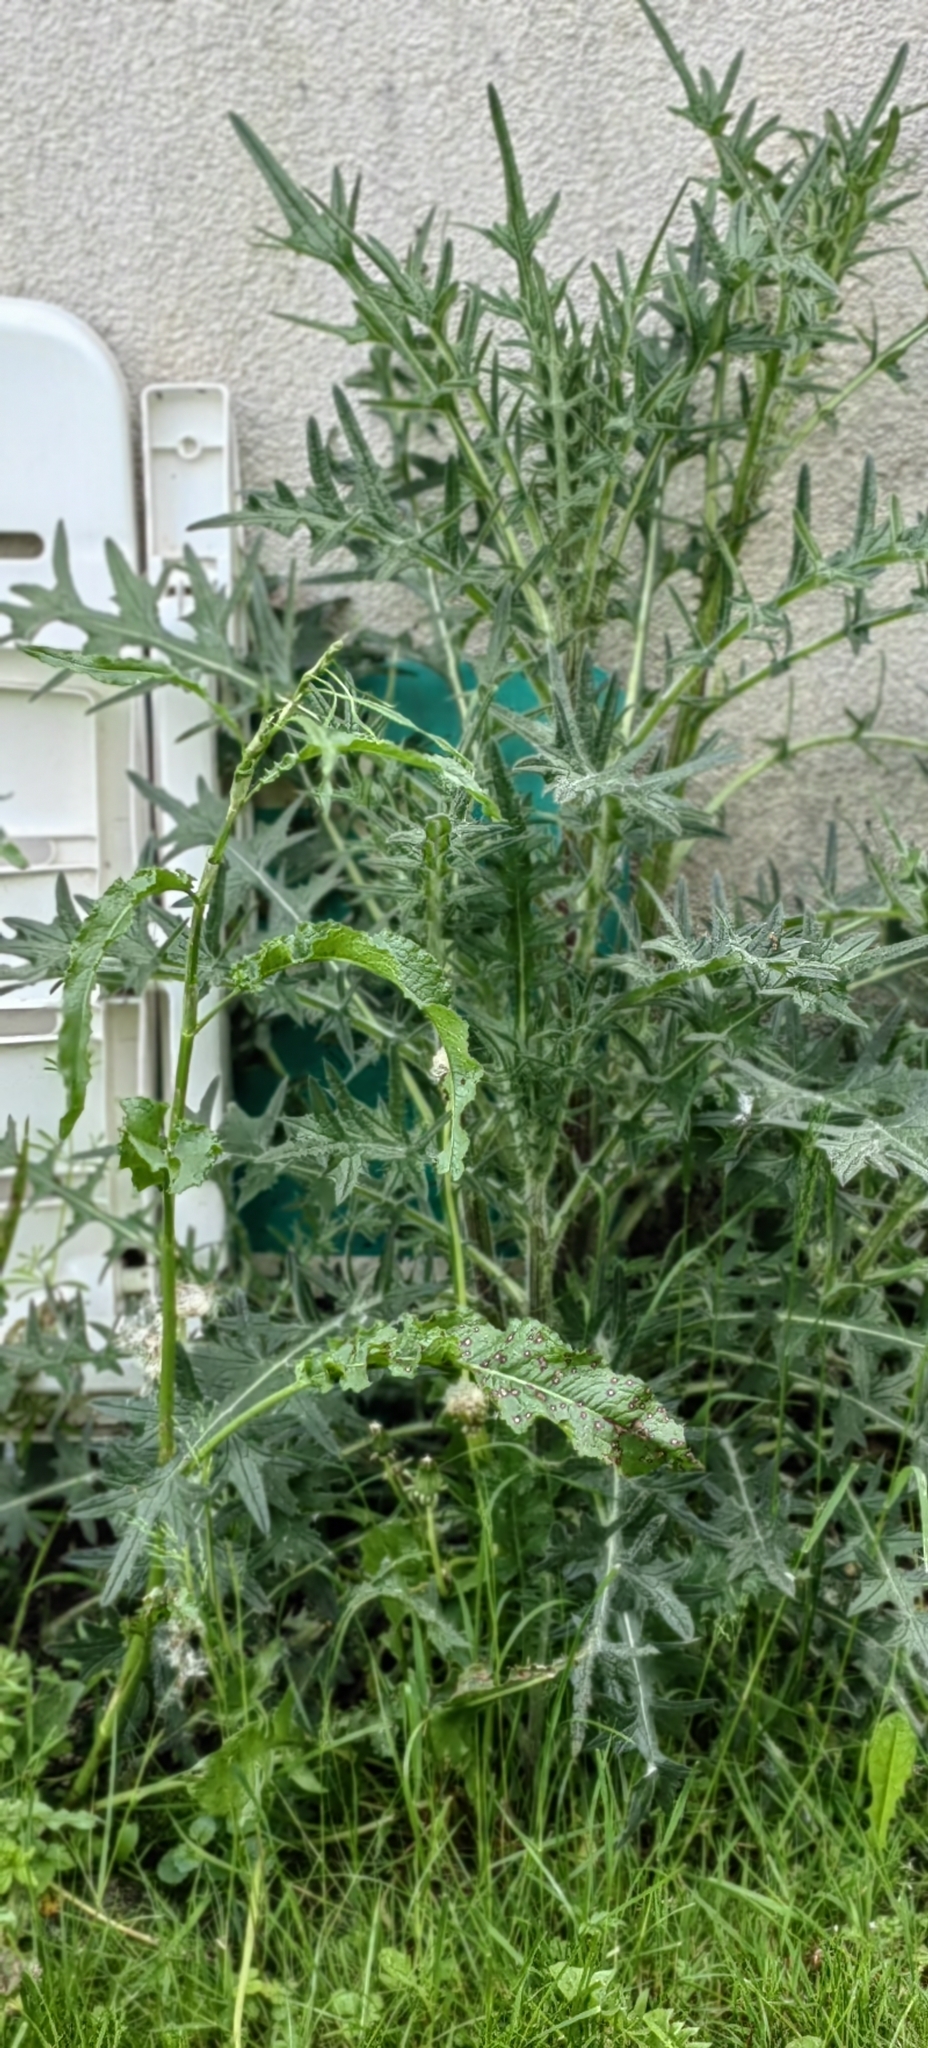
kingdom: Plantae
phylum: Tracheophyta
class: Magnoliopsida
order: Asterales
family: Asteraceae
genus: Cirsium
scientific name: Cirsium vulgare
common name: Bull thistle
